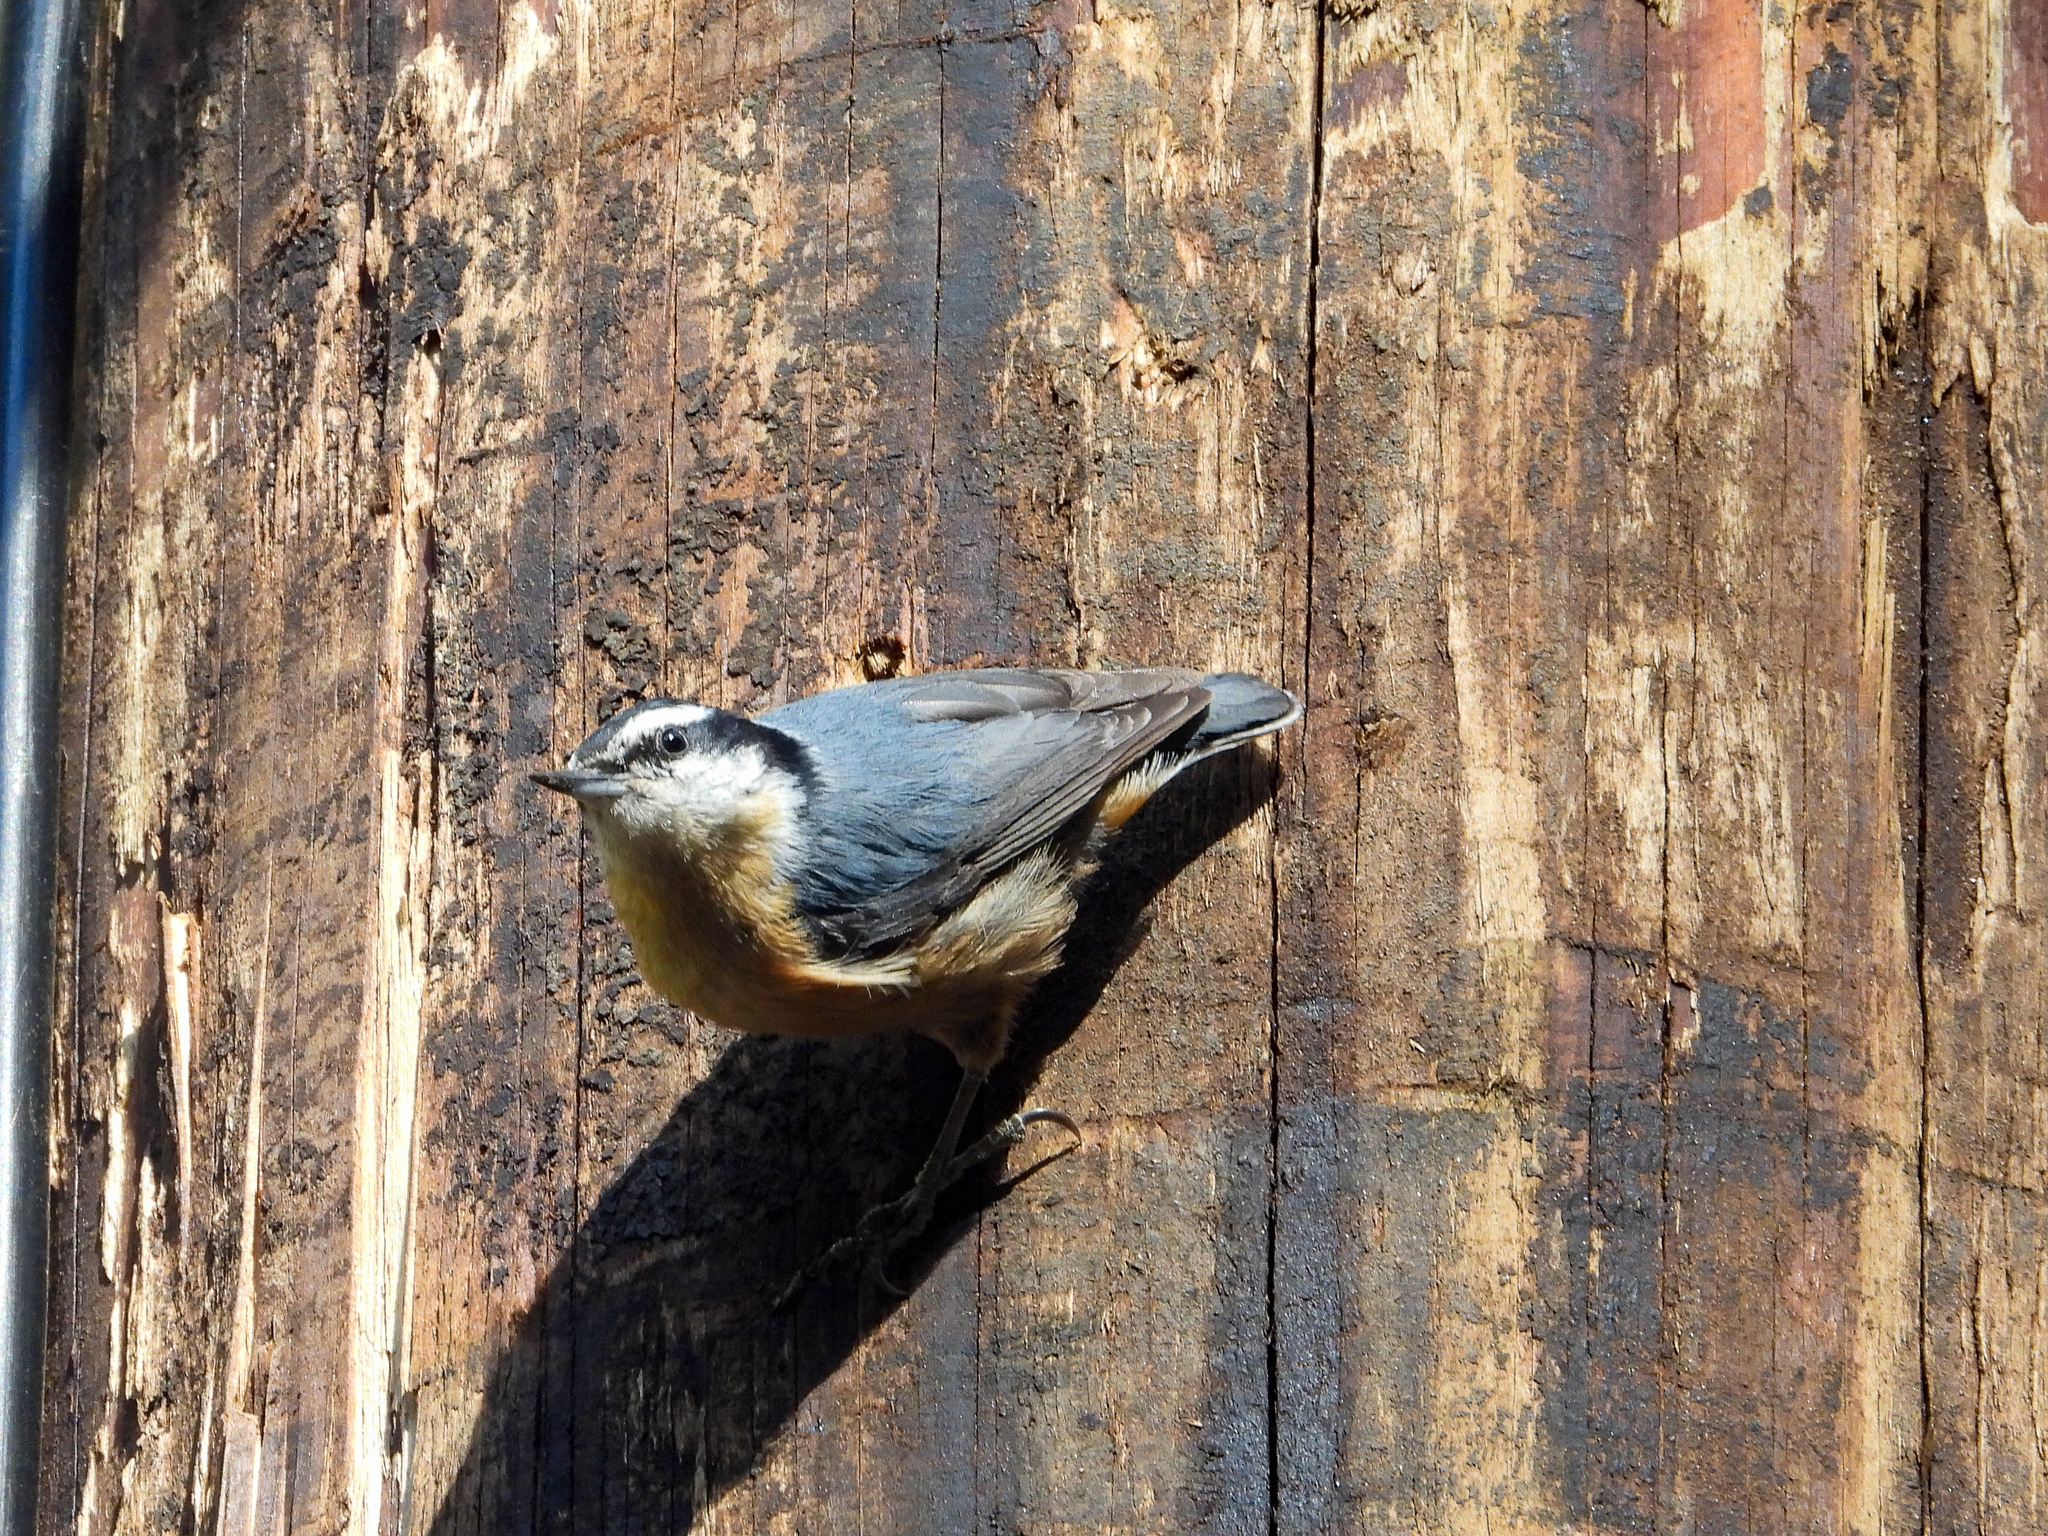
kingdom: Animalia
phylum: Chordata
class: Aves
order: Passeriformes
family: Sittidae
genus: Sitta
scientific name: Sitta canadensis
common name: Red-breasted nuthatch
